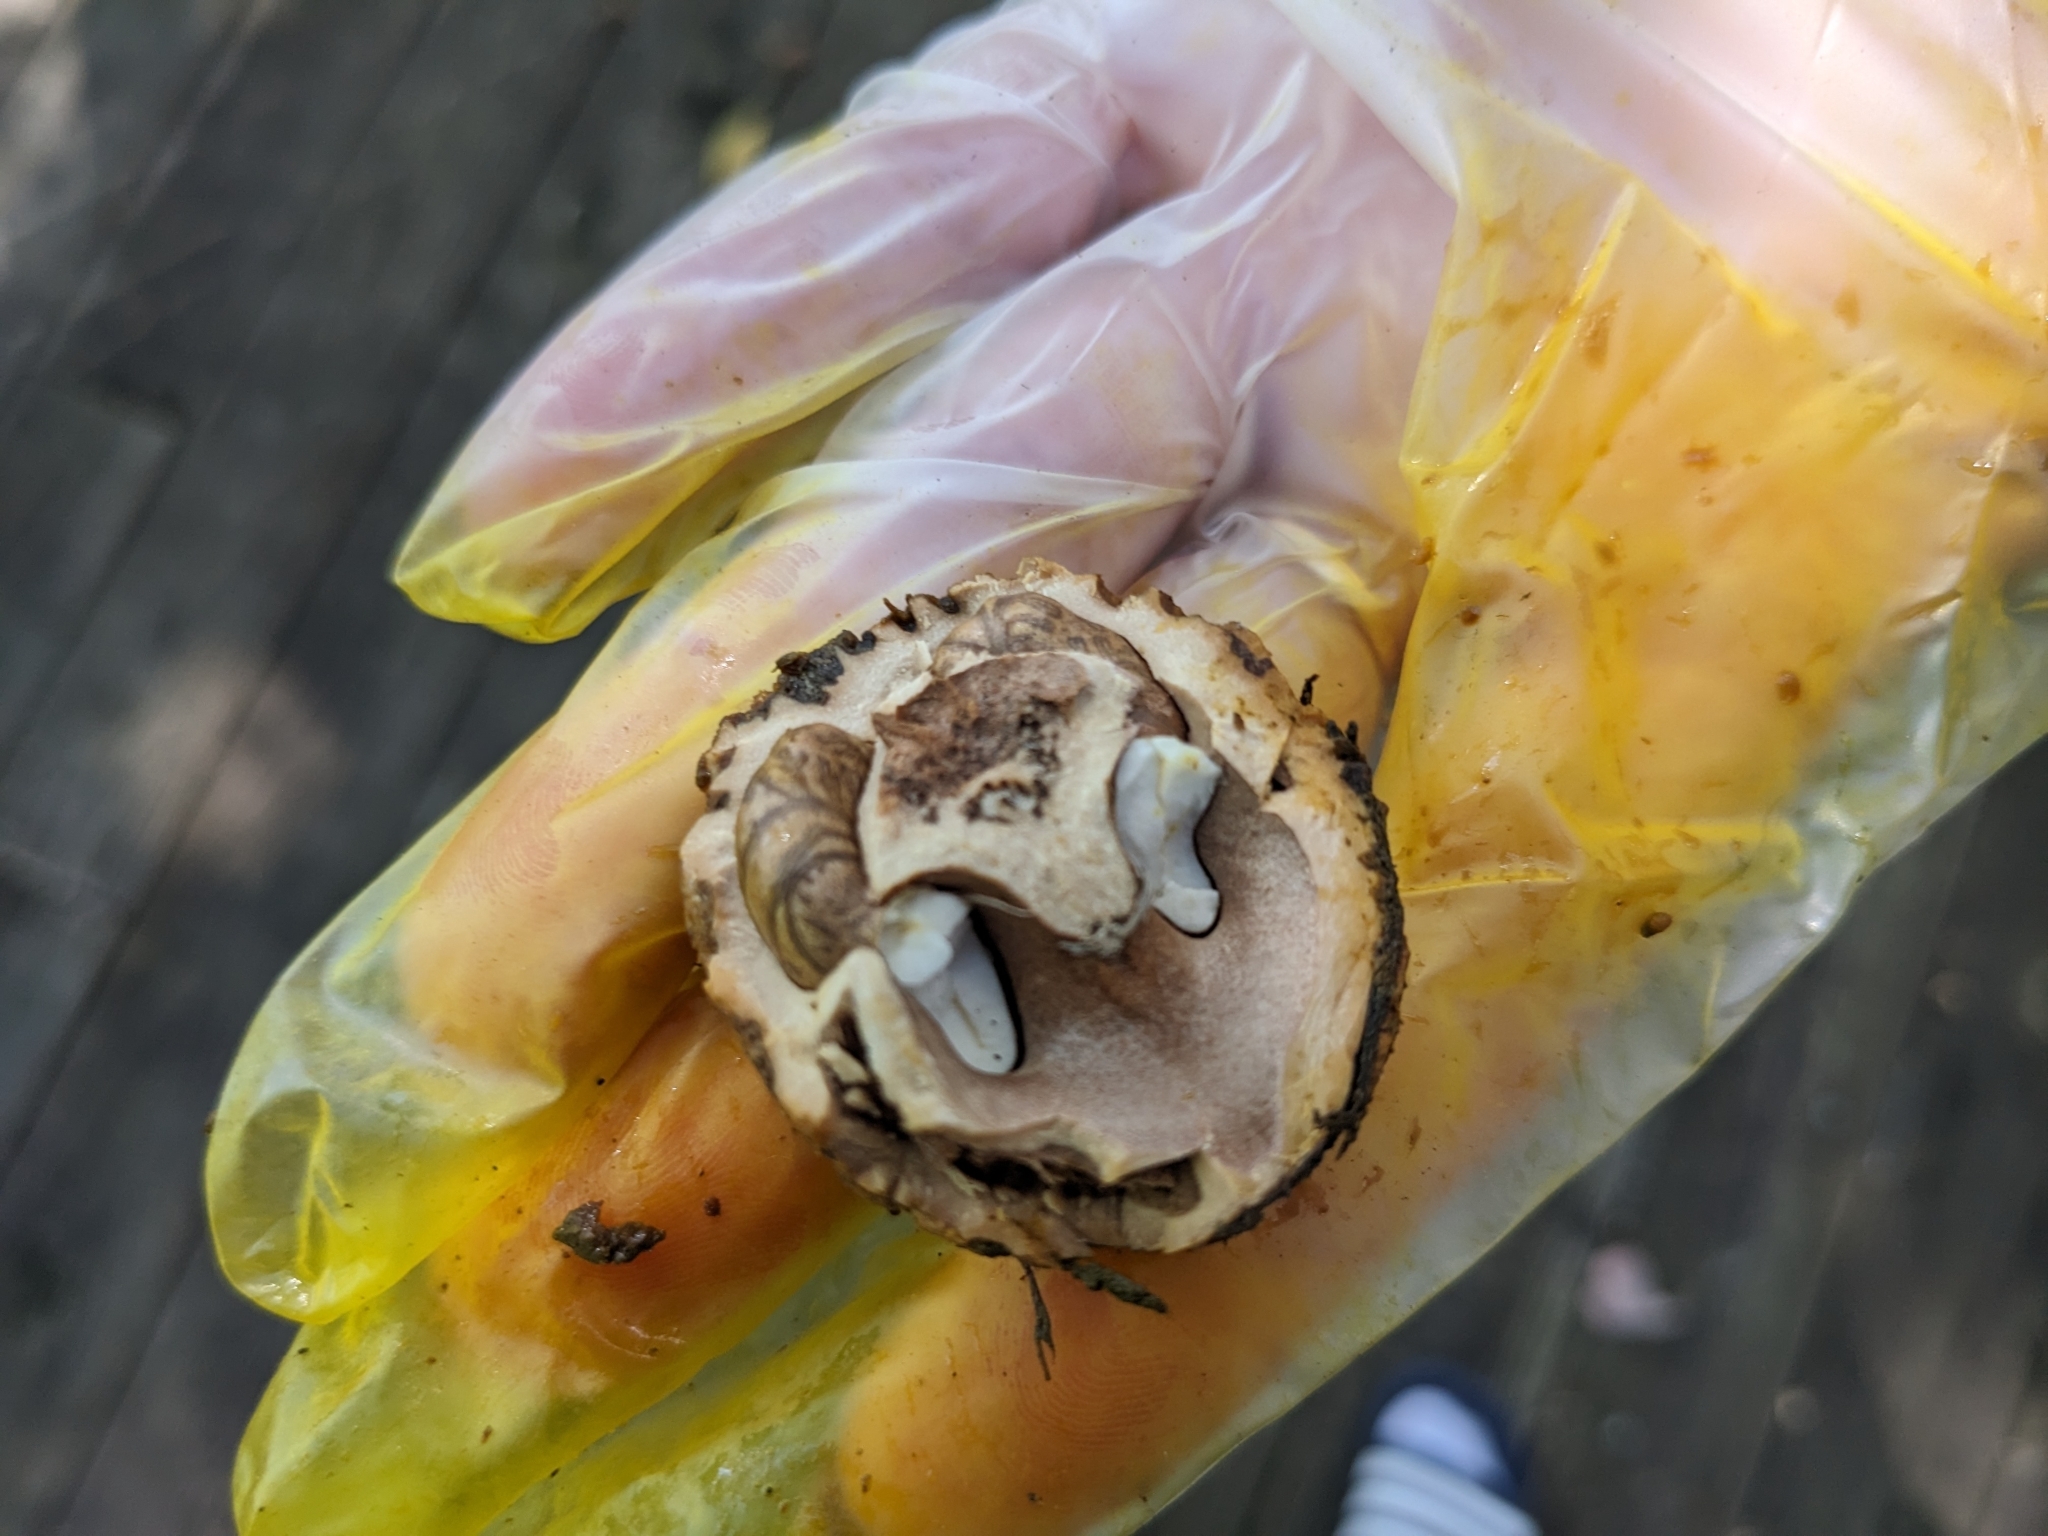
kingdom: Plantae
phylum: Tracheophyta
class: Magnoliopsida
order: Fagales
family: Juglandaceae
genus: Juglans
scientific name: Juglans nigra
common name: Black walnut
